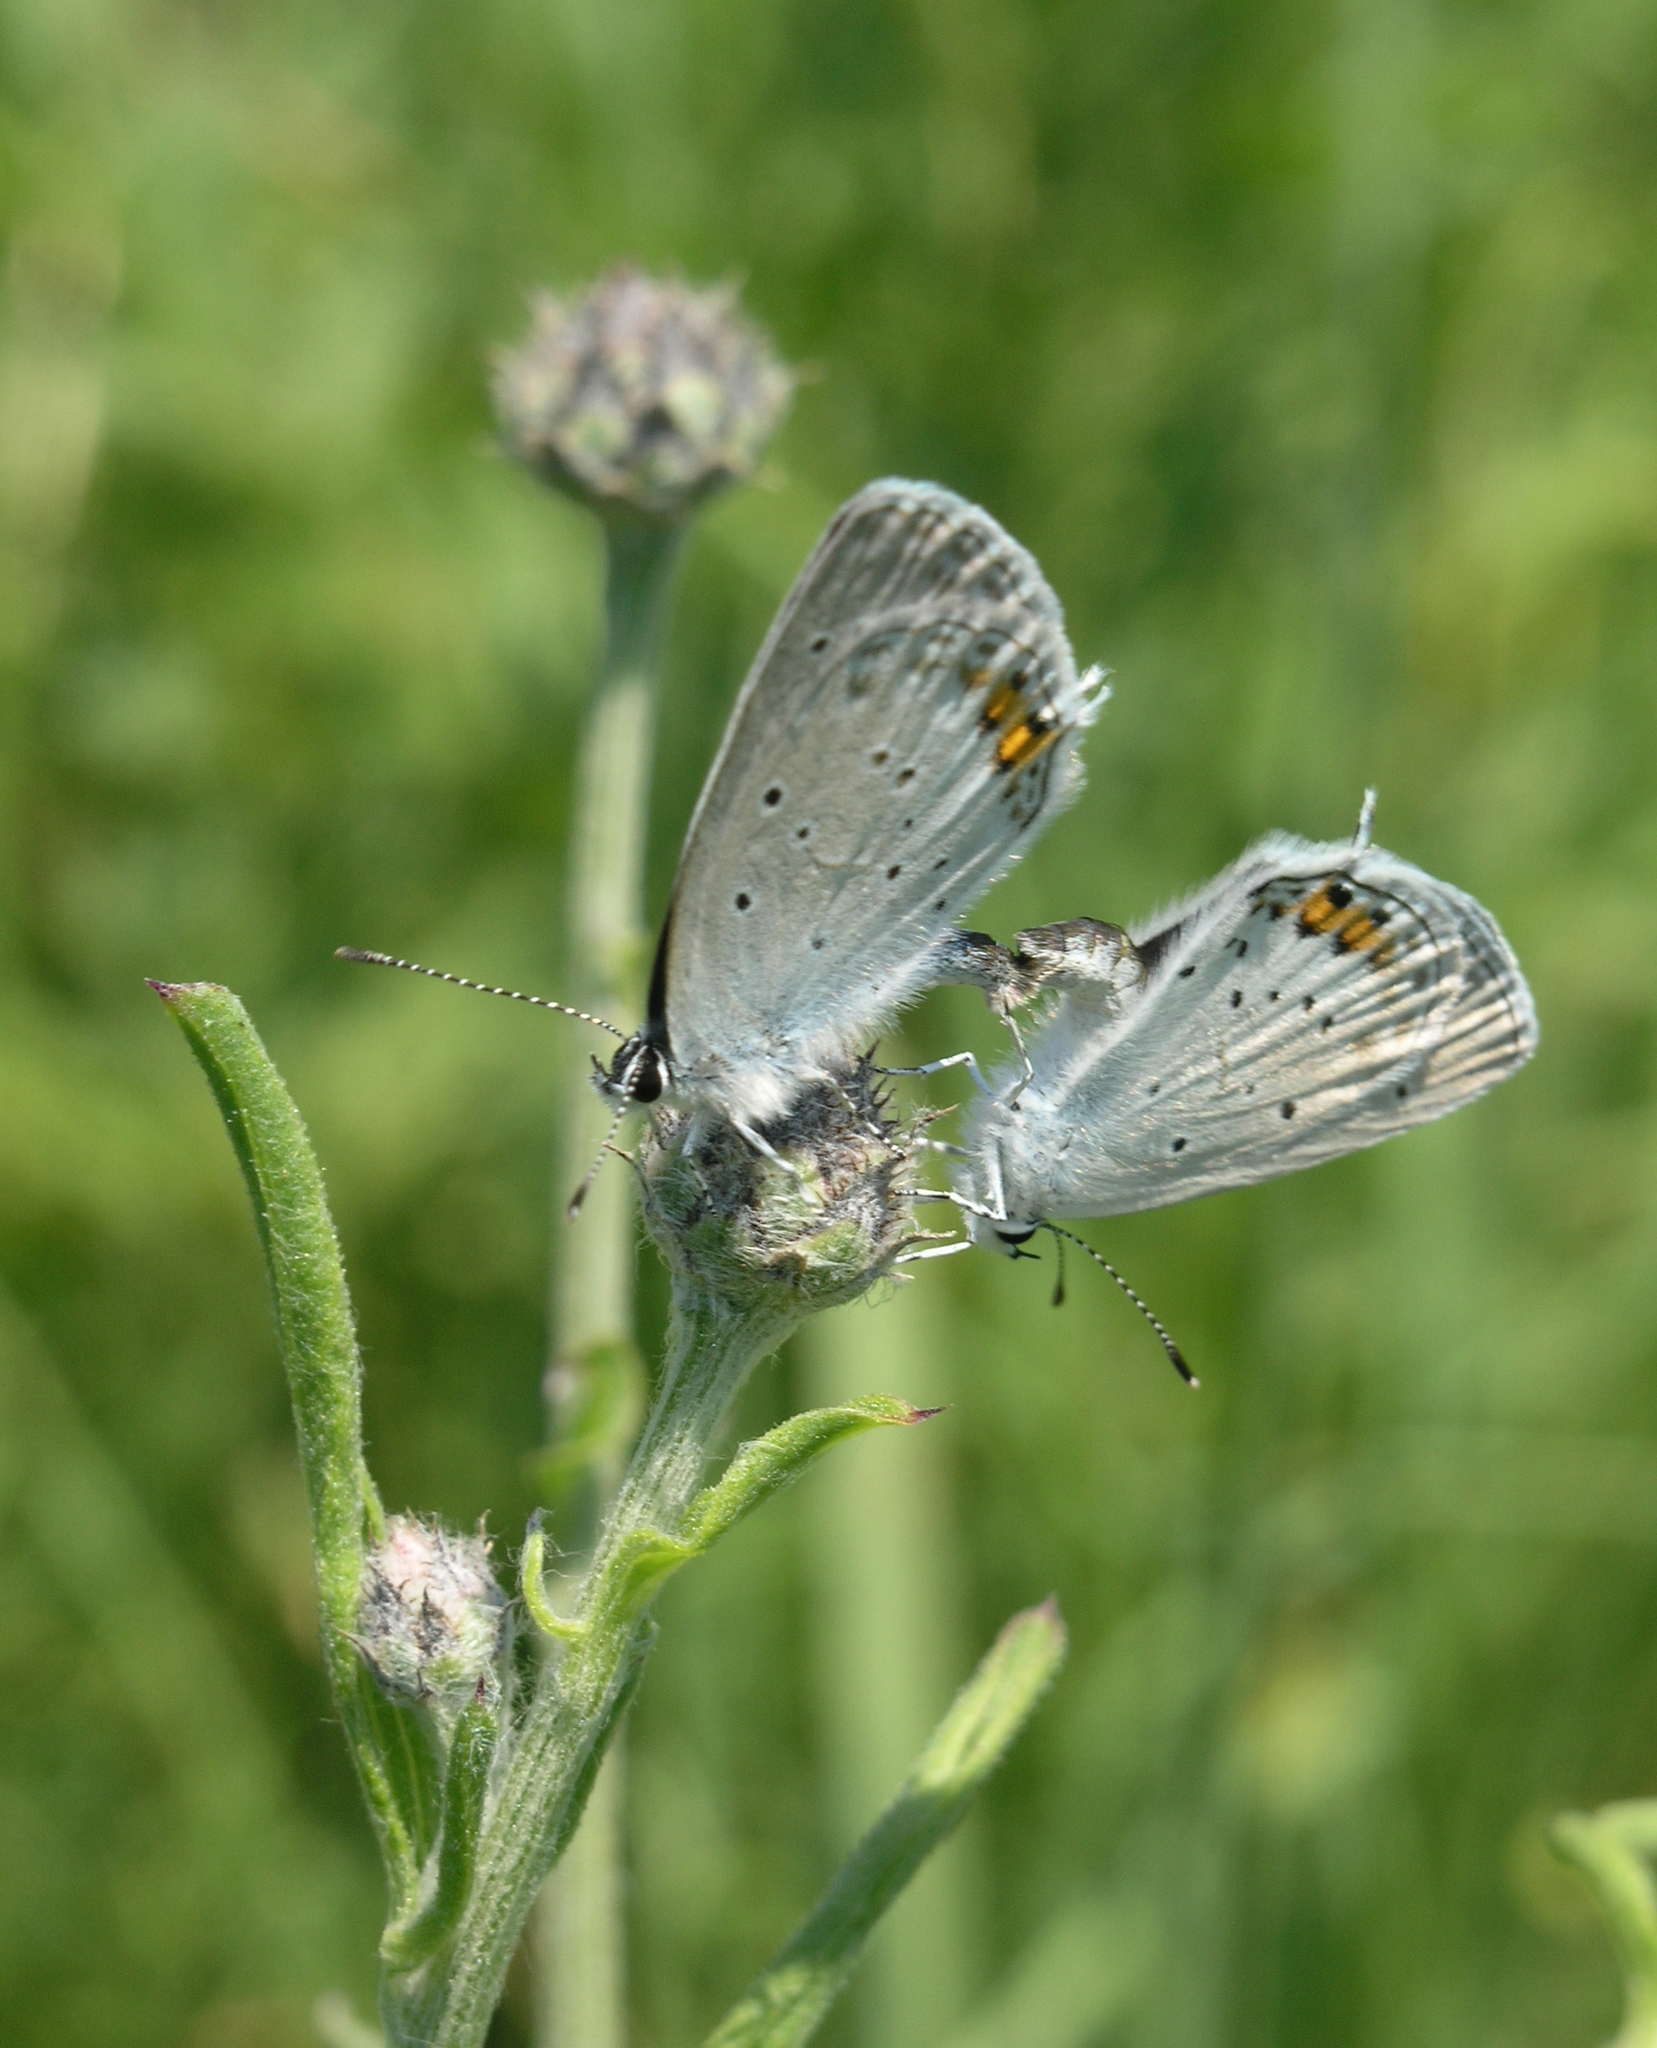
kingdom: Animalia
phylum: Arthropoda
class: Insecta
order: Lepidoptera
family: Lycaenidae
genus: Elkalyce
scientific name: Elkalyce argiades
